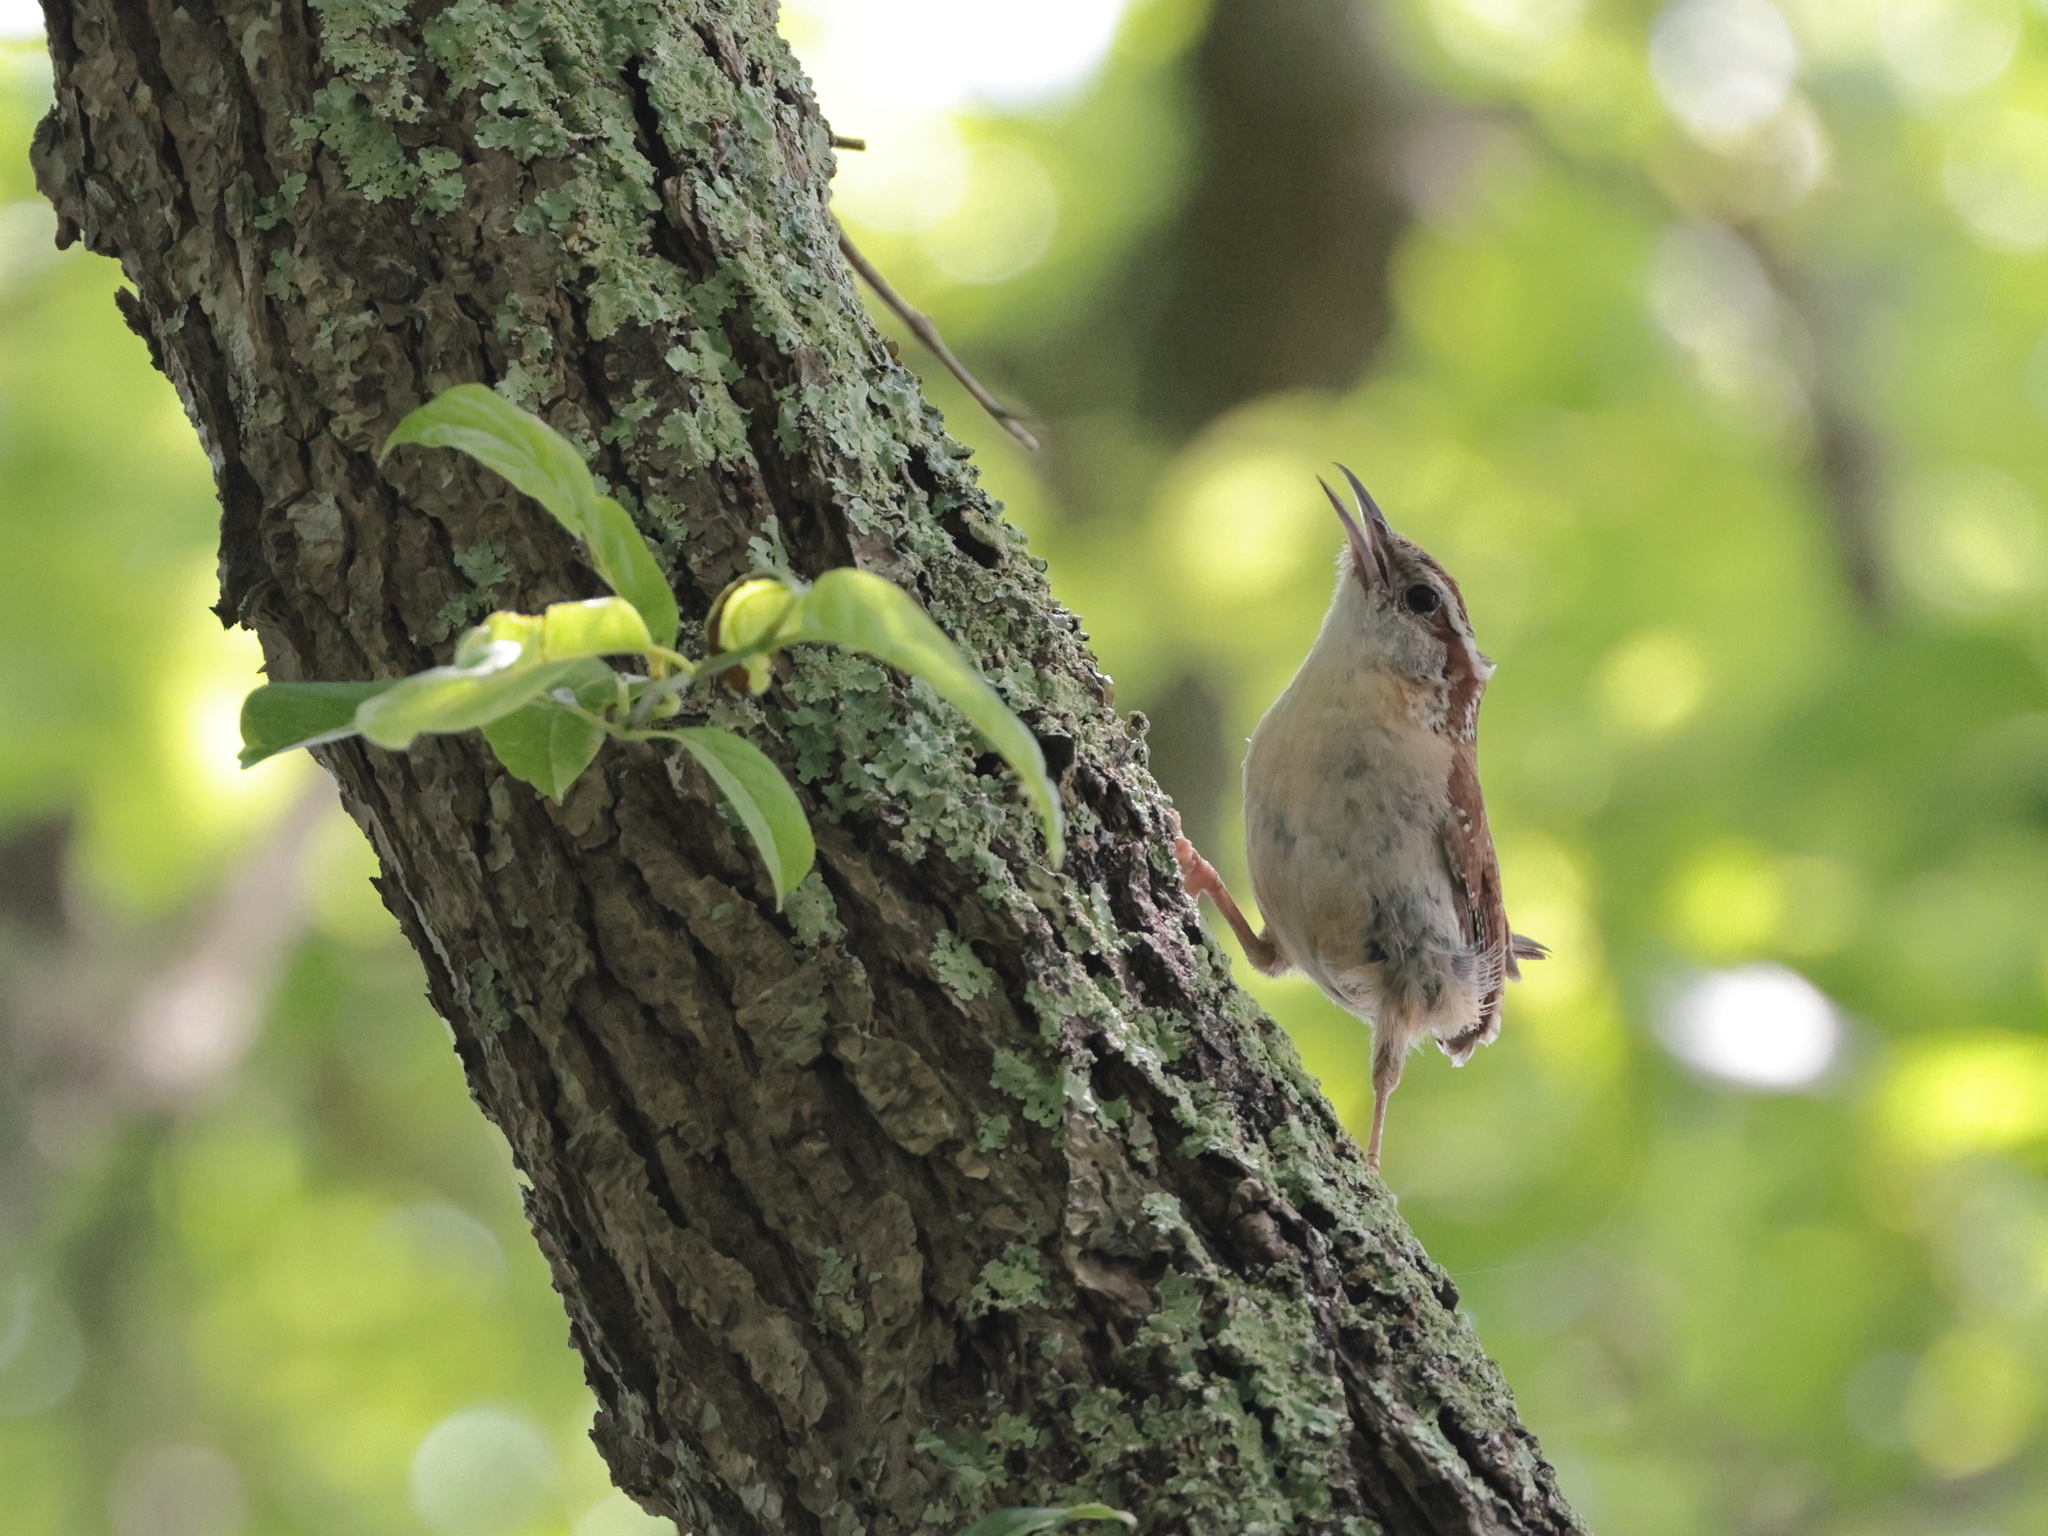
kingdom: Animalia
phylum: Chordata
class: Aves
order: Passeriformes
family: Troglodytidae
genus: Thryothorus
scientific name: Thryothorus ludovicianus
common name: Carolina wren
